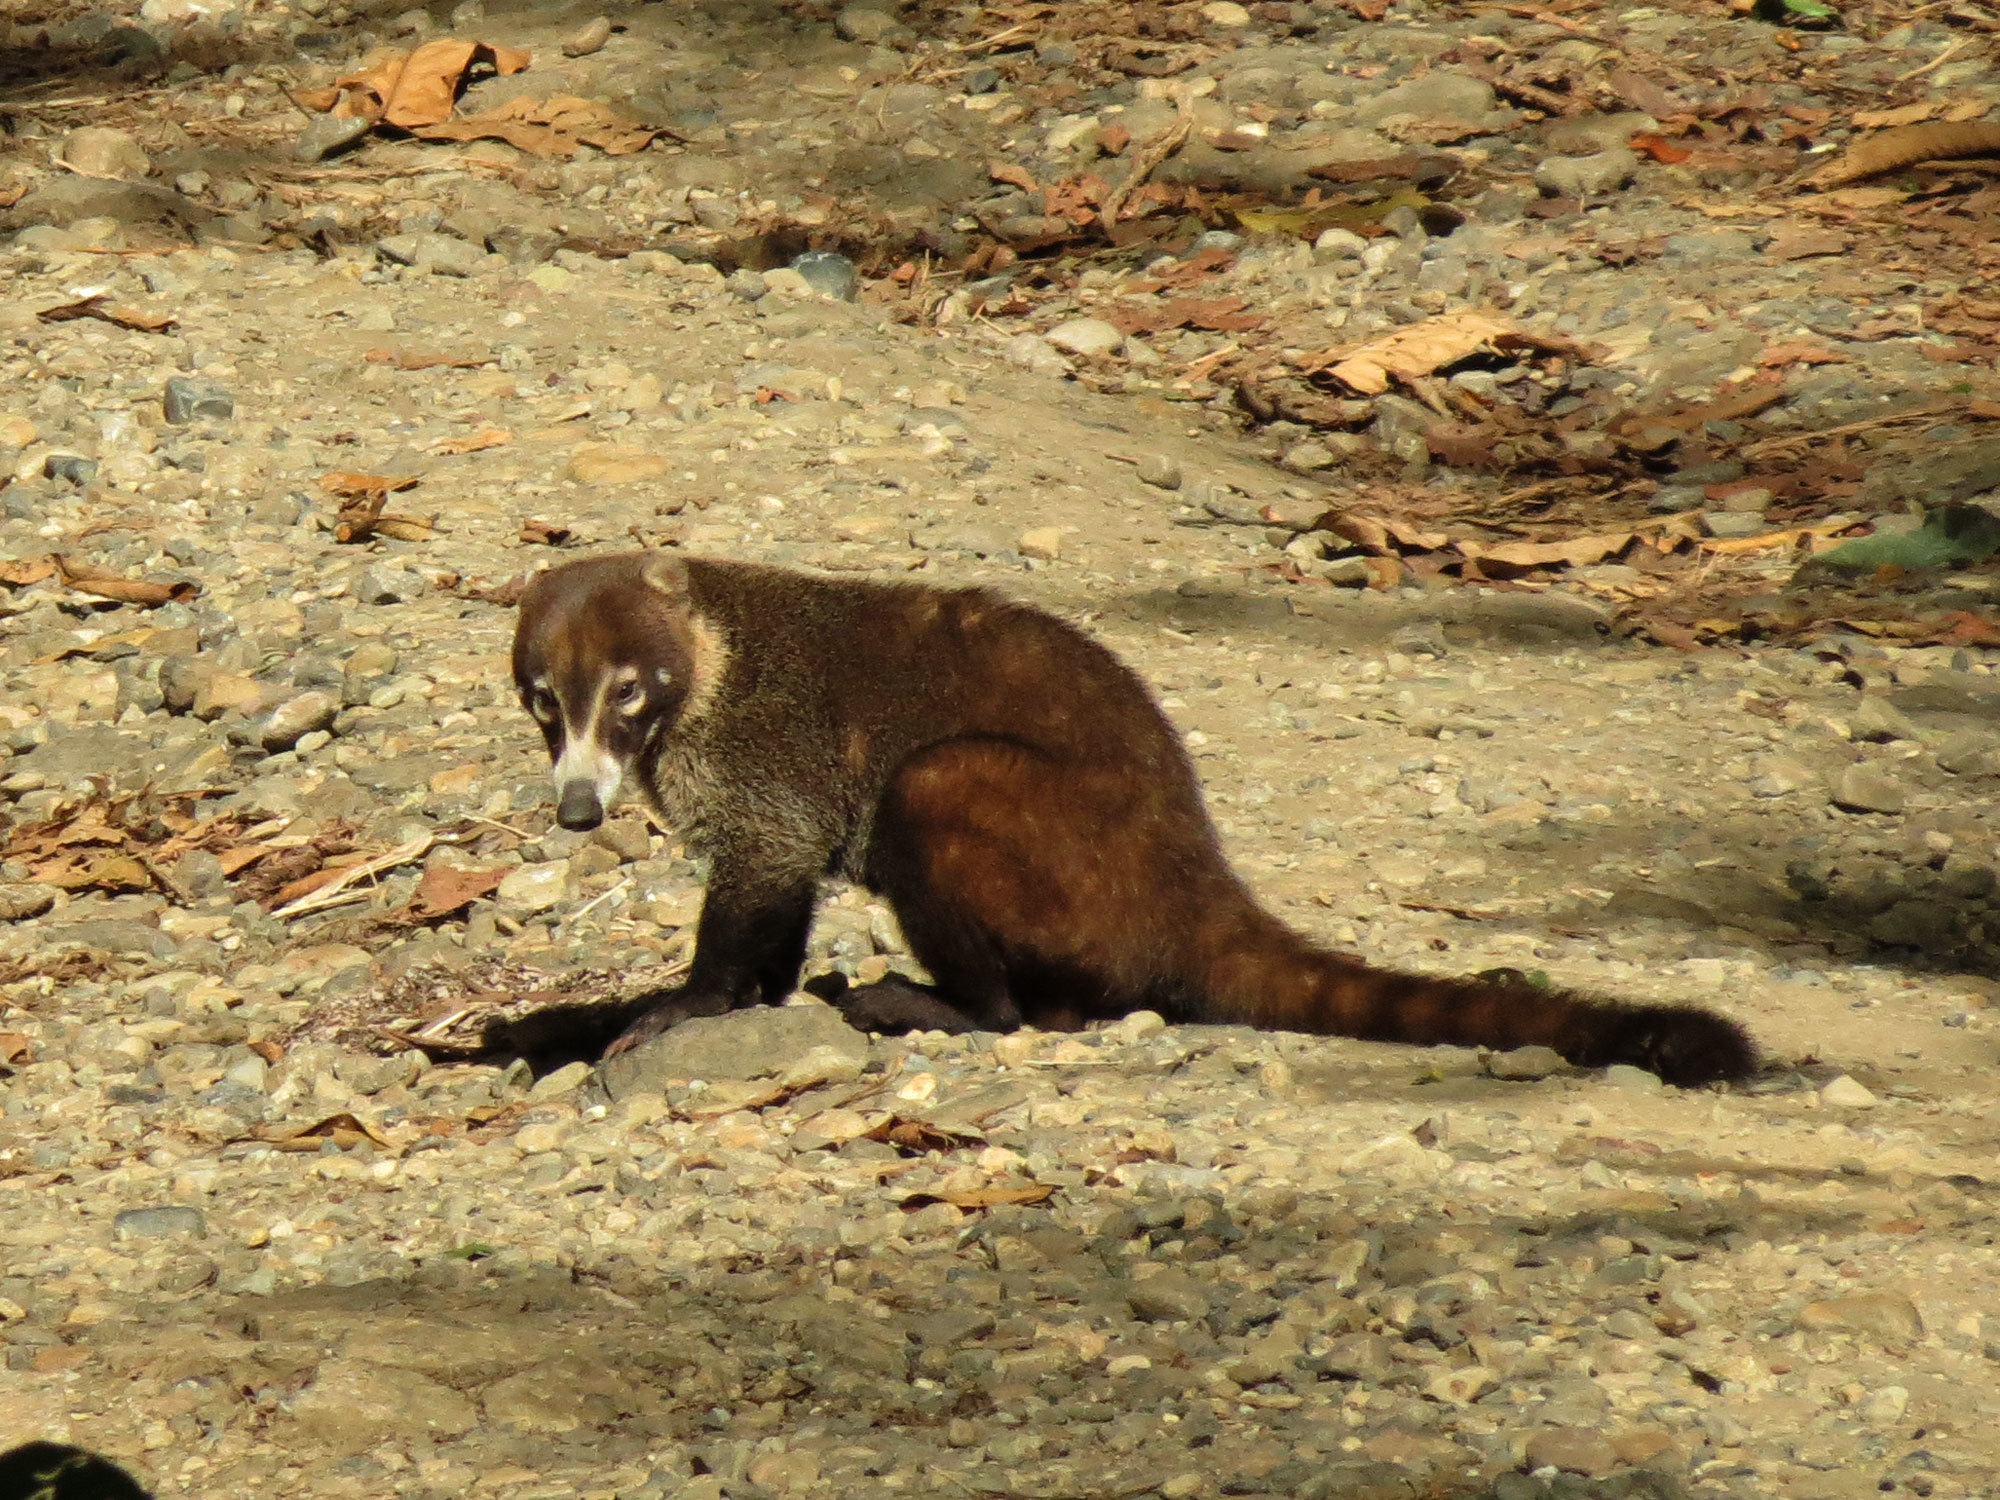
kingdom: Animalia
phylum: Chordata
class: Mammalia
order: Carnivora
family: Procyonidae
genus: Nasua
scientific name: Nasua narica
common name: White-nosed coati
